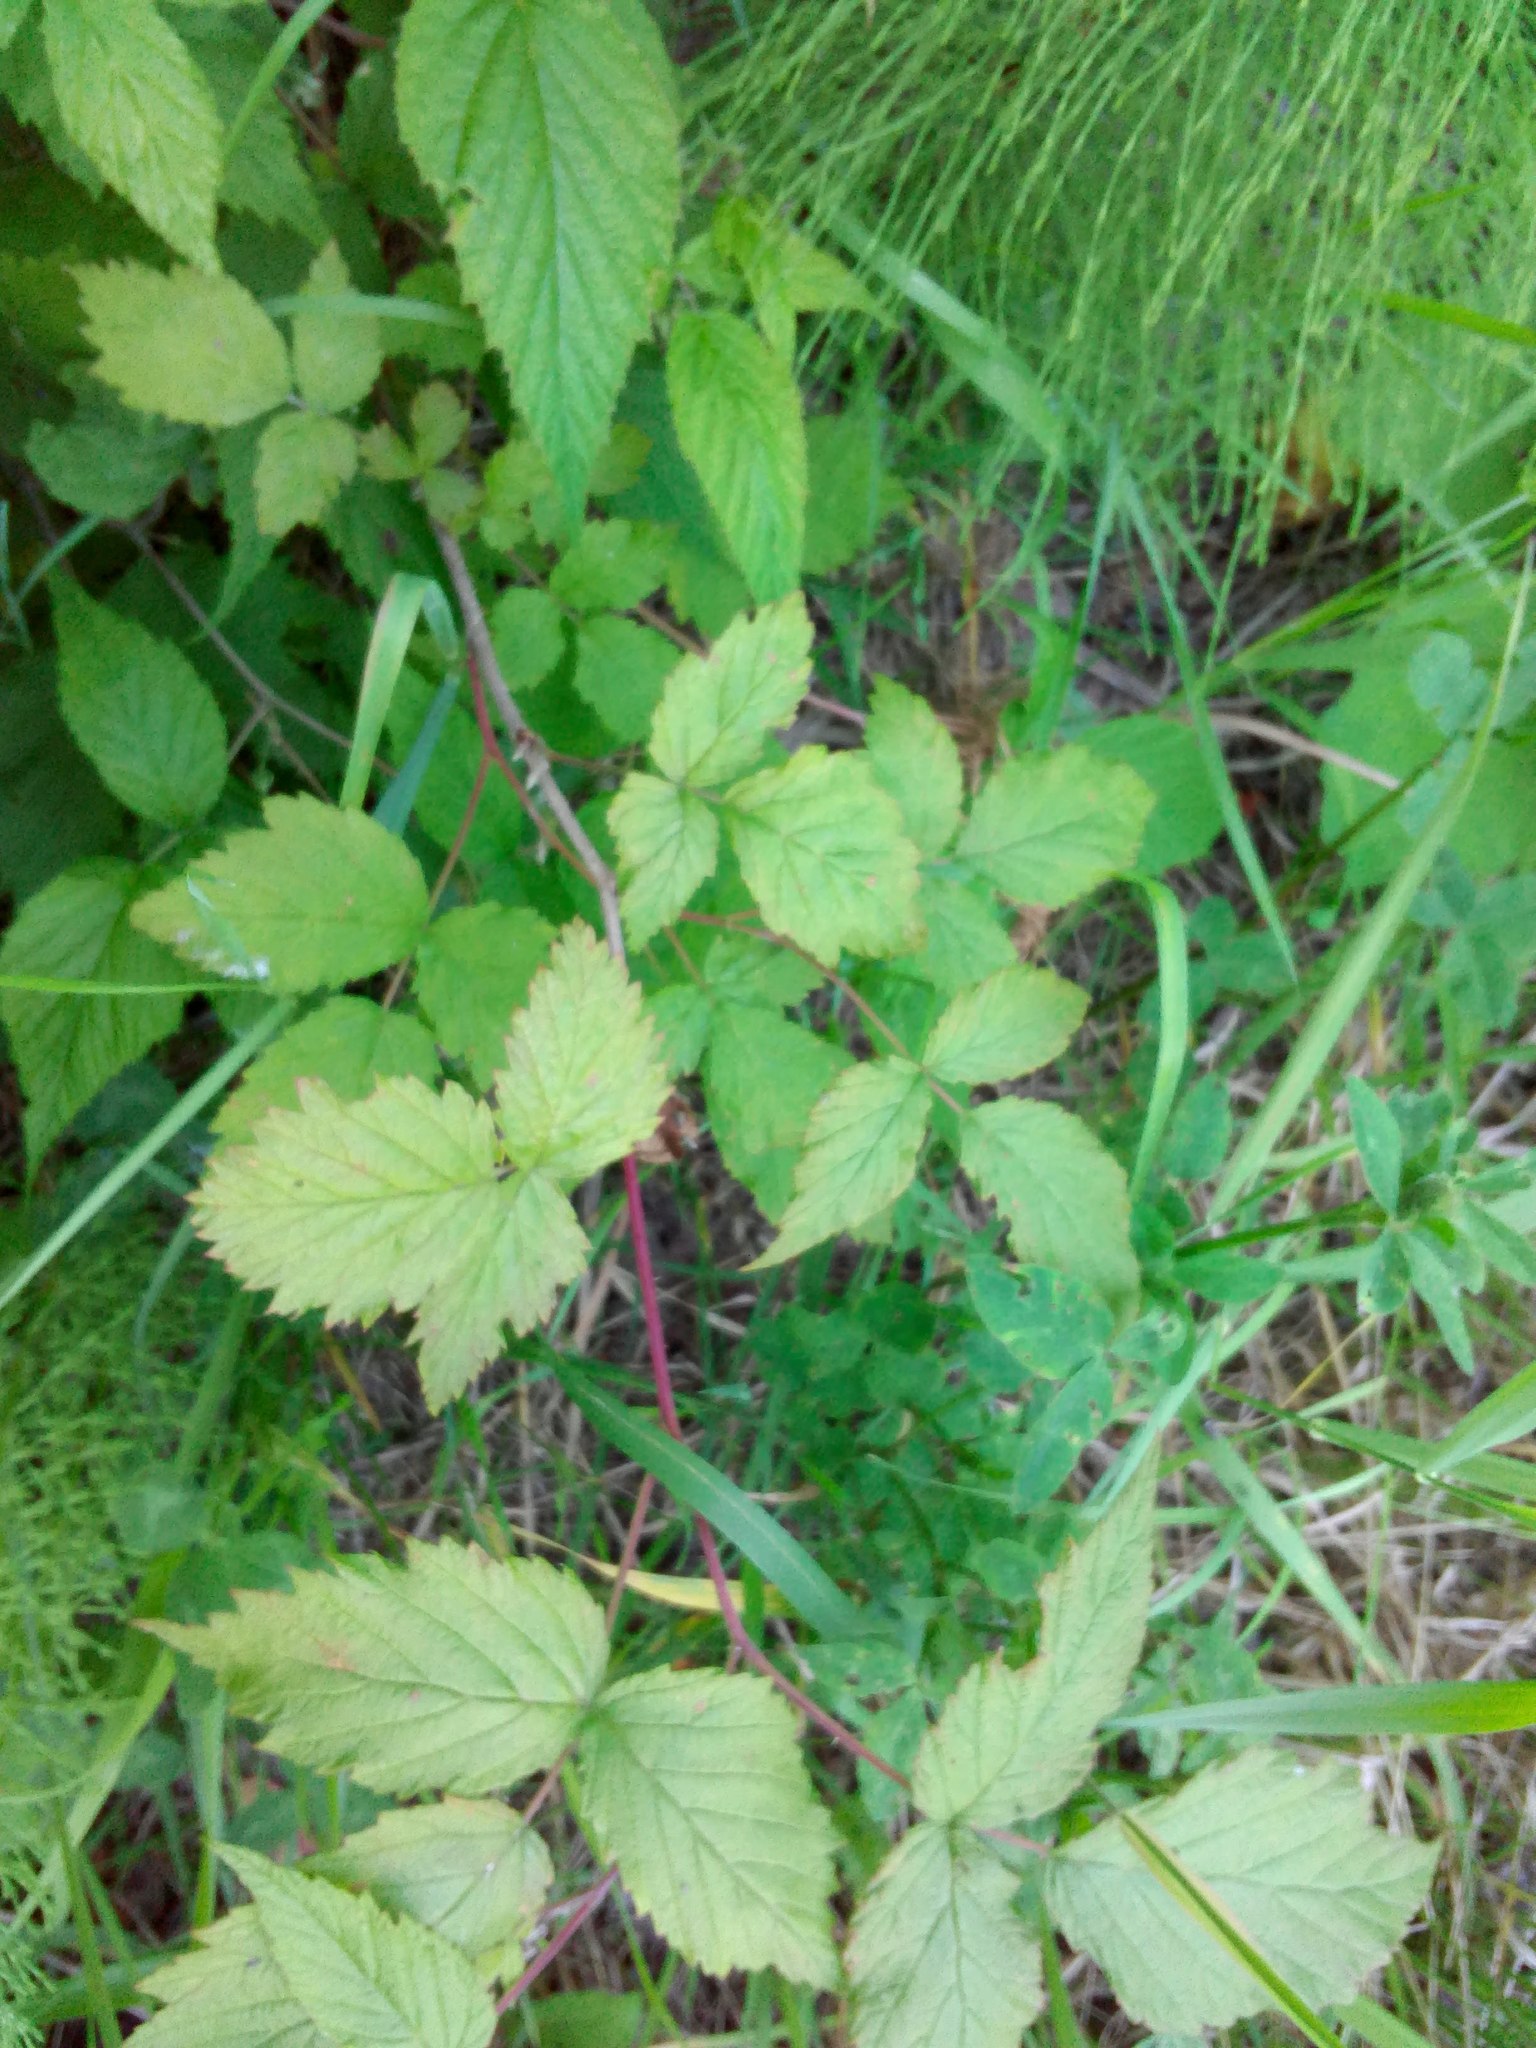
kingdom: Plantae
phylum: Tracheophyta
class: Magnoliopsida
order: Rosales
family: Rosaceae
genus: Rubus
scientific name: Rubus idaeus
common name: Raspberry
